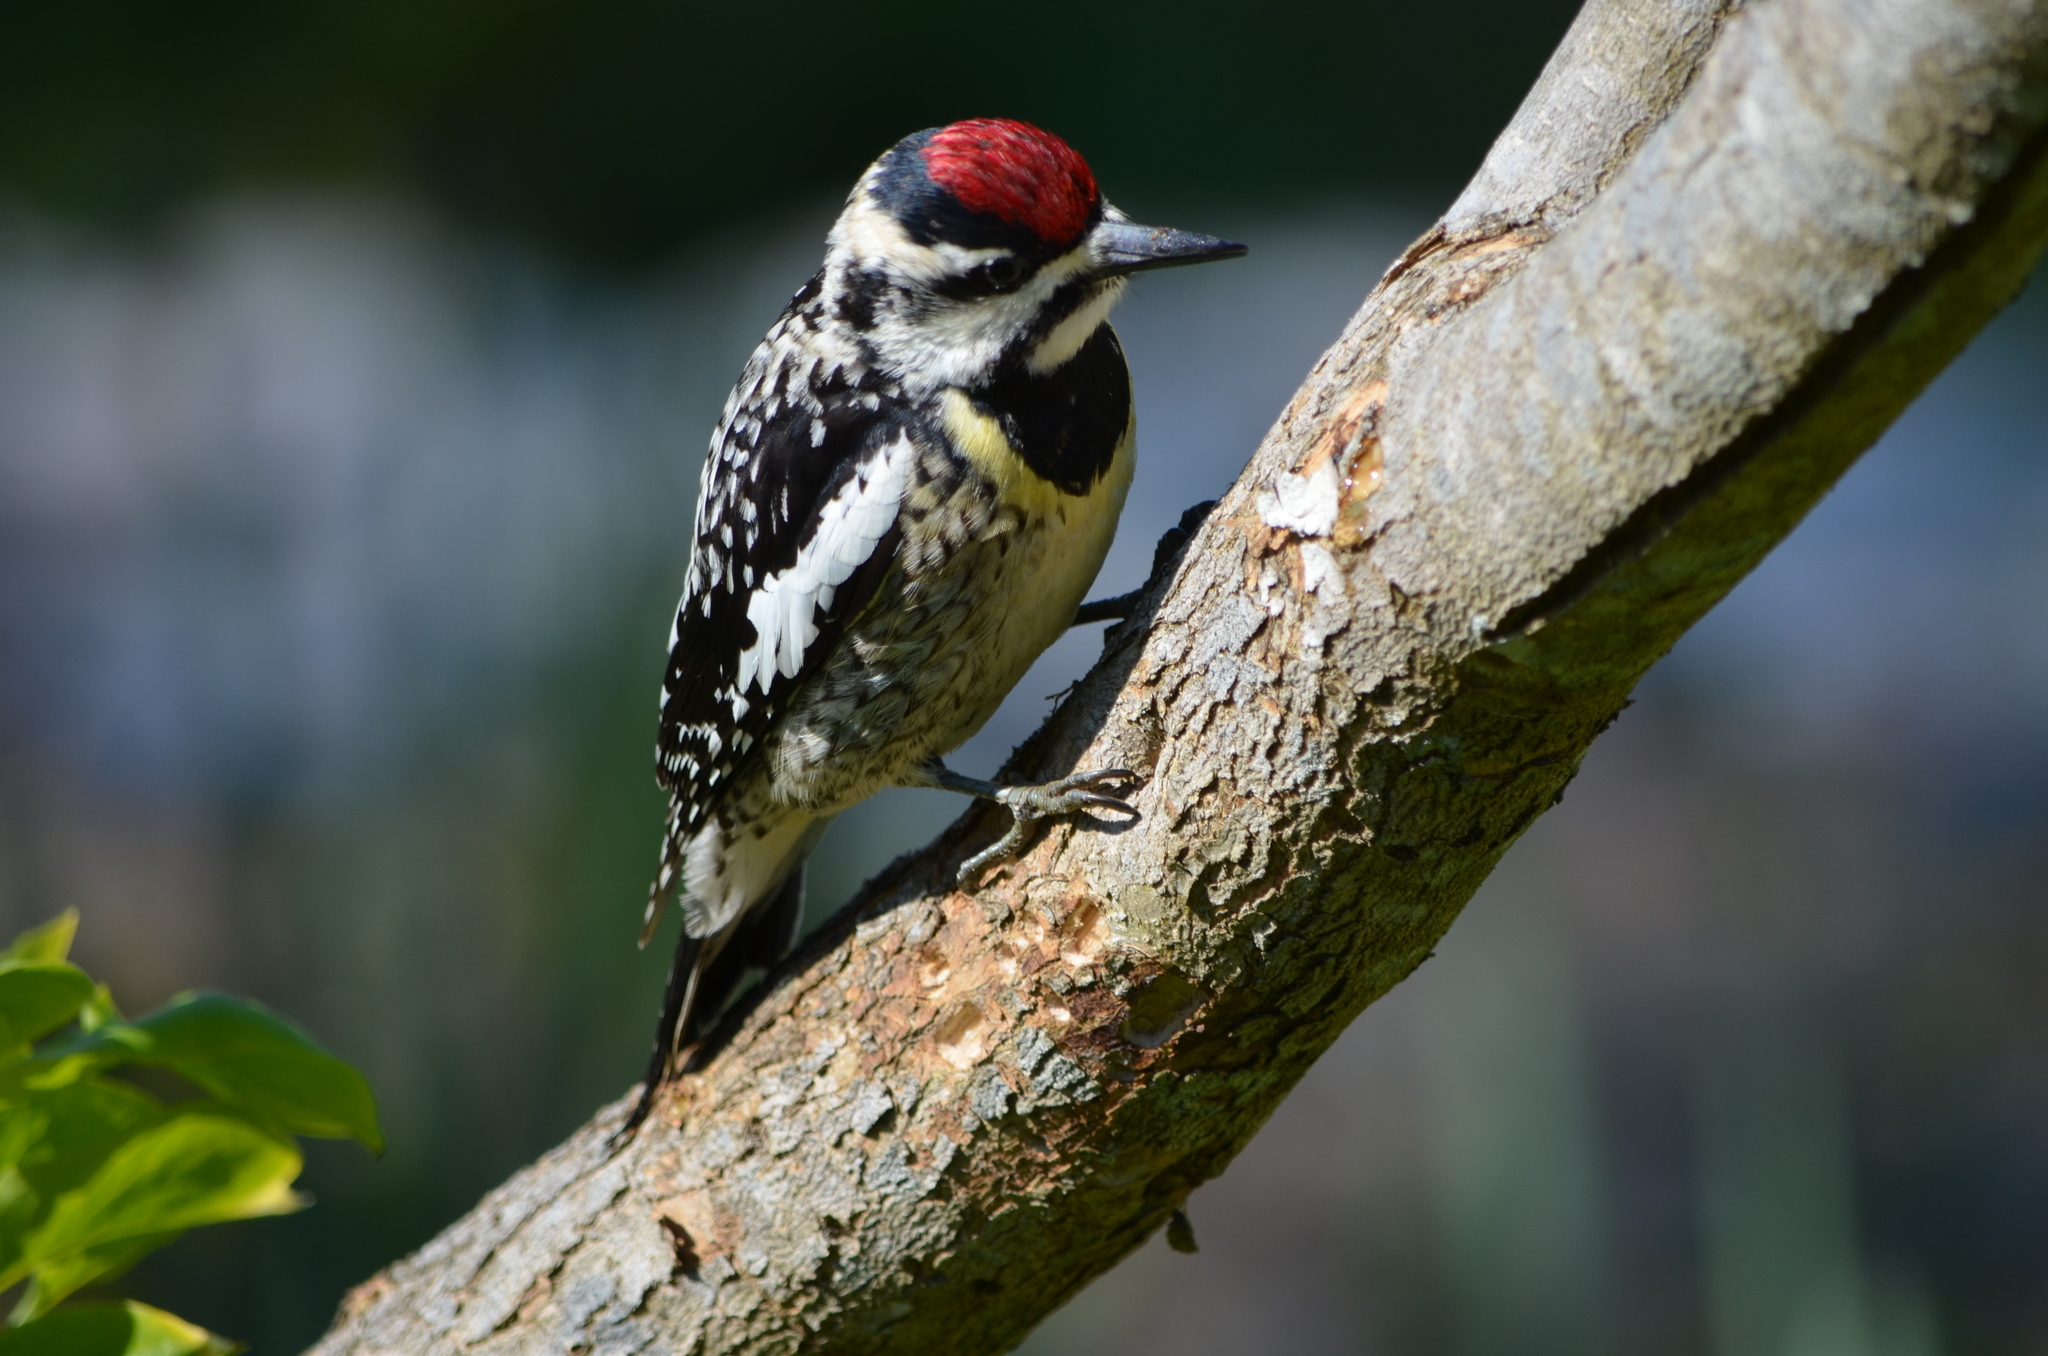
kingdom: Animalia
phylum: Chordata
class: Aves
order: Piciformes
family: Picidae
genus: Sphyrapicus
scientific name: Sphyrapicus varius
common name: Yellow-bellied sapsucker
